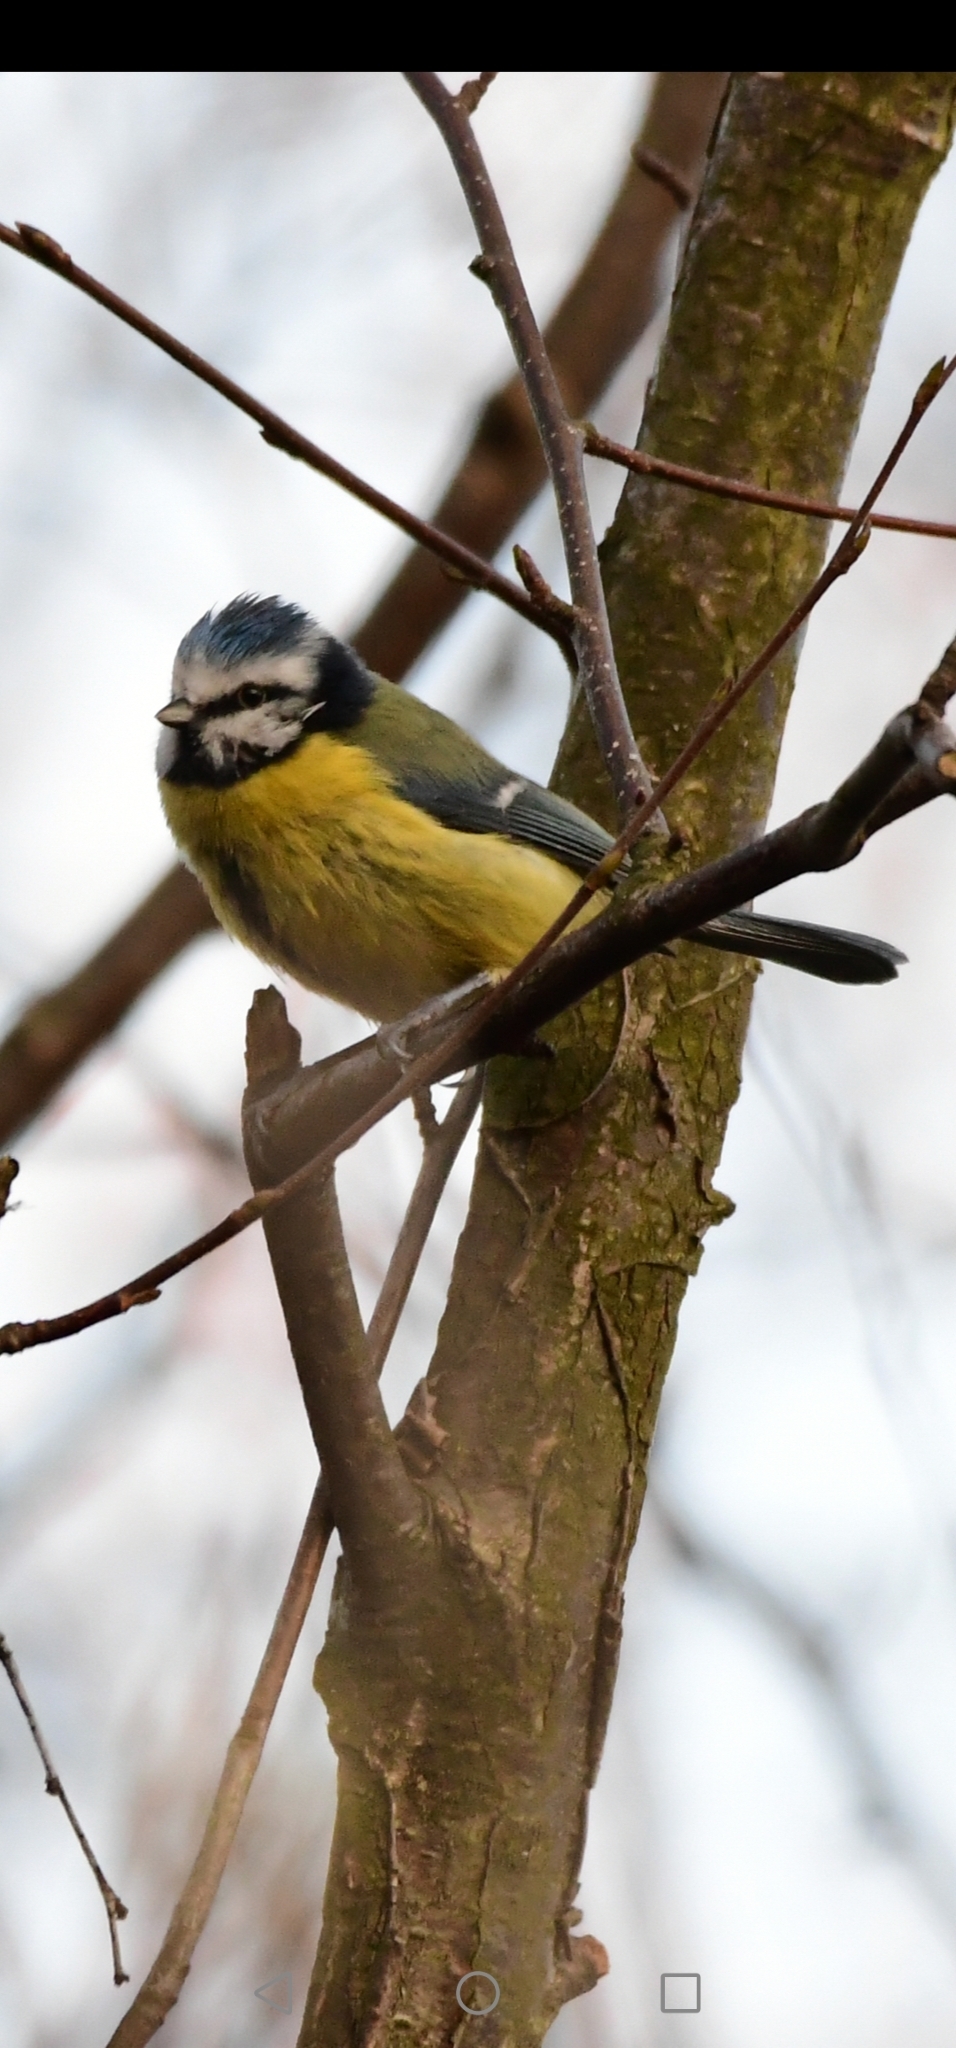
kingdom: Animalia
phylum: Chordata
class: Aves
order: Passeriformes
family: Paridae
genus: Cyanistes
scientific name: Cyanistes caeruleus
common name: Eurasian blue tit
